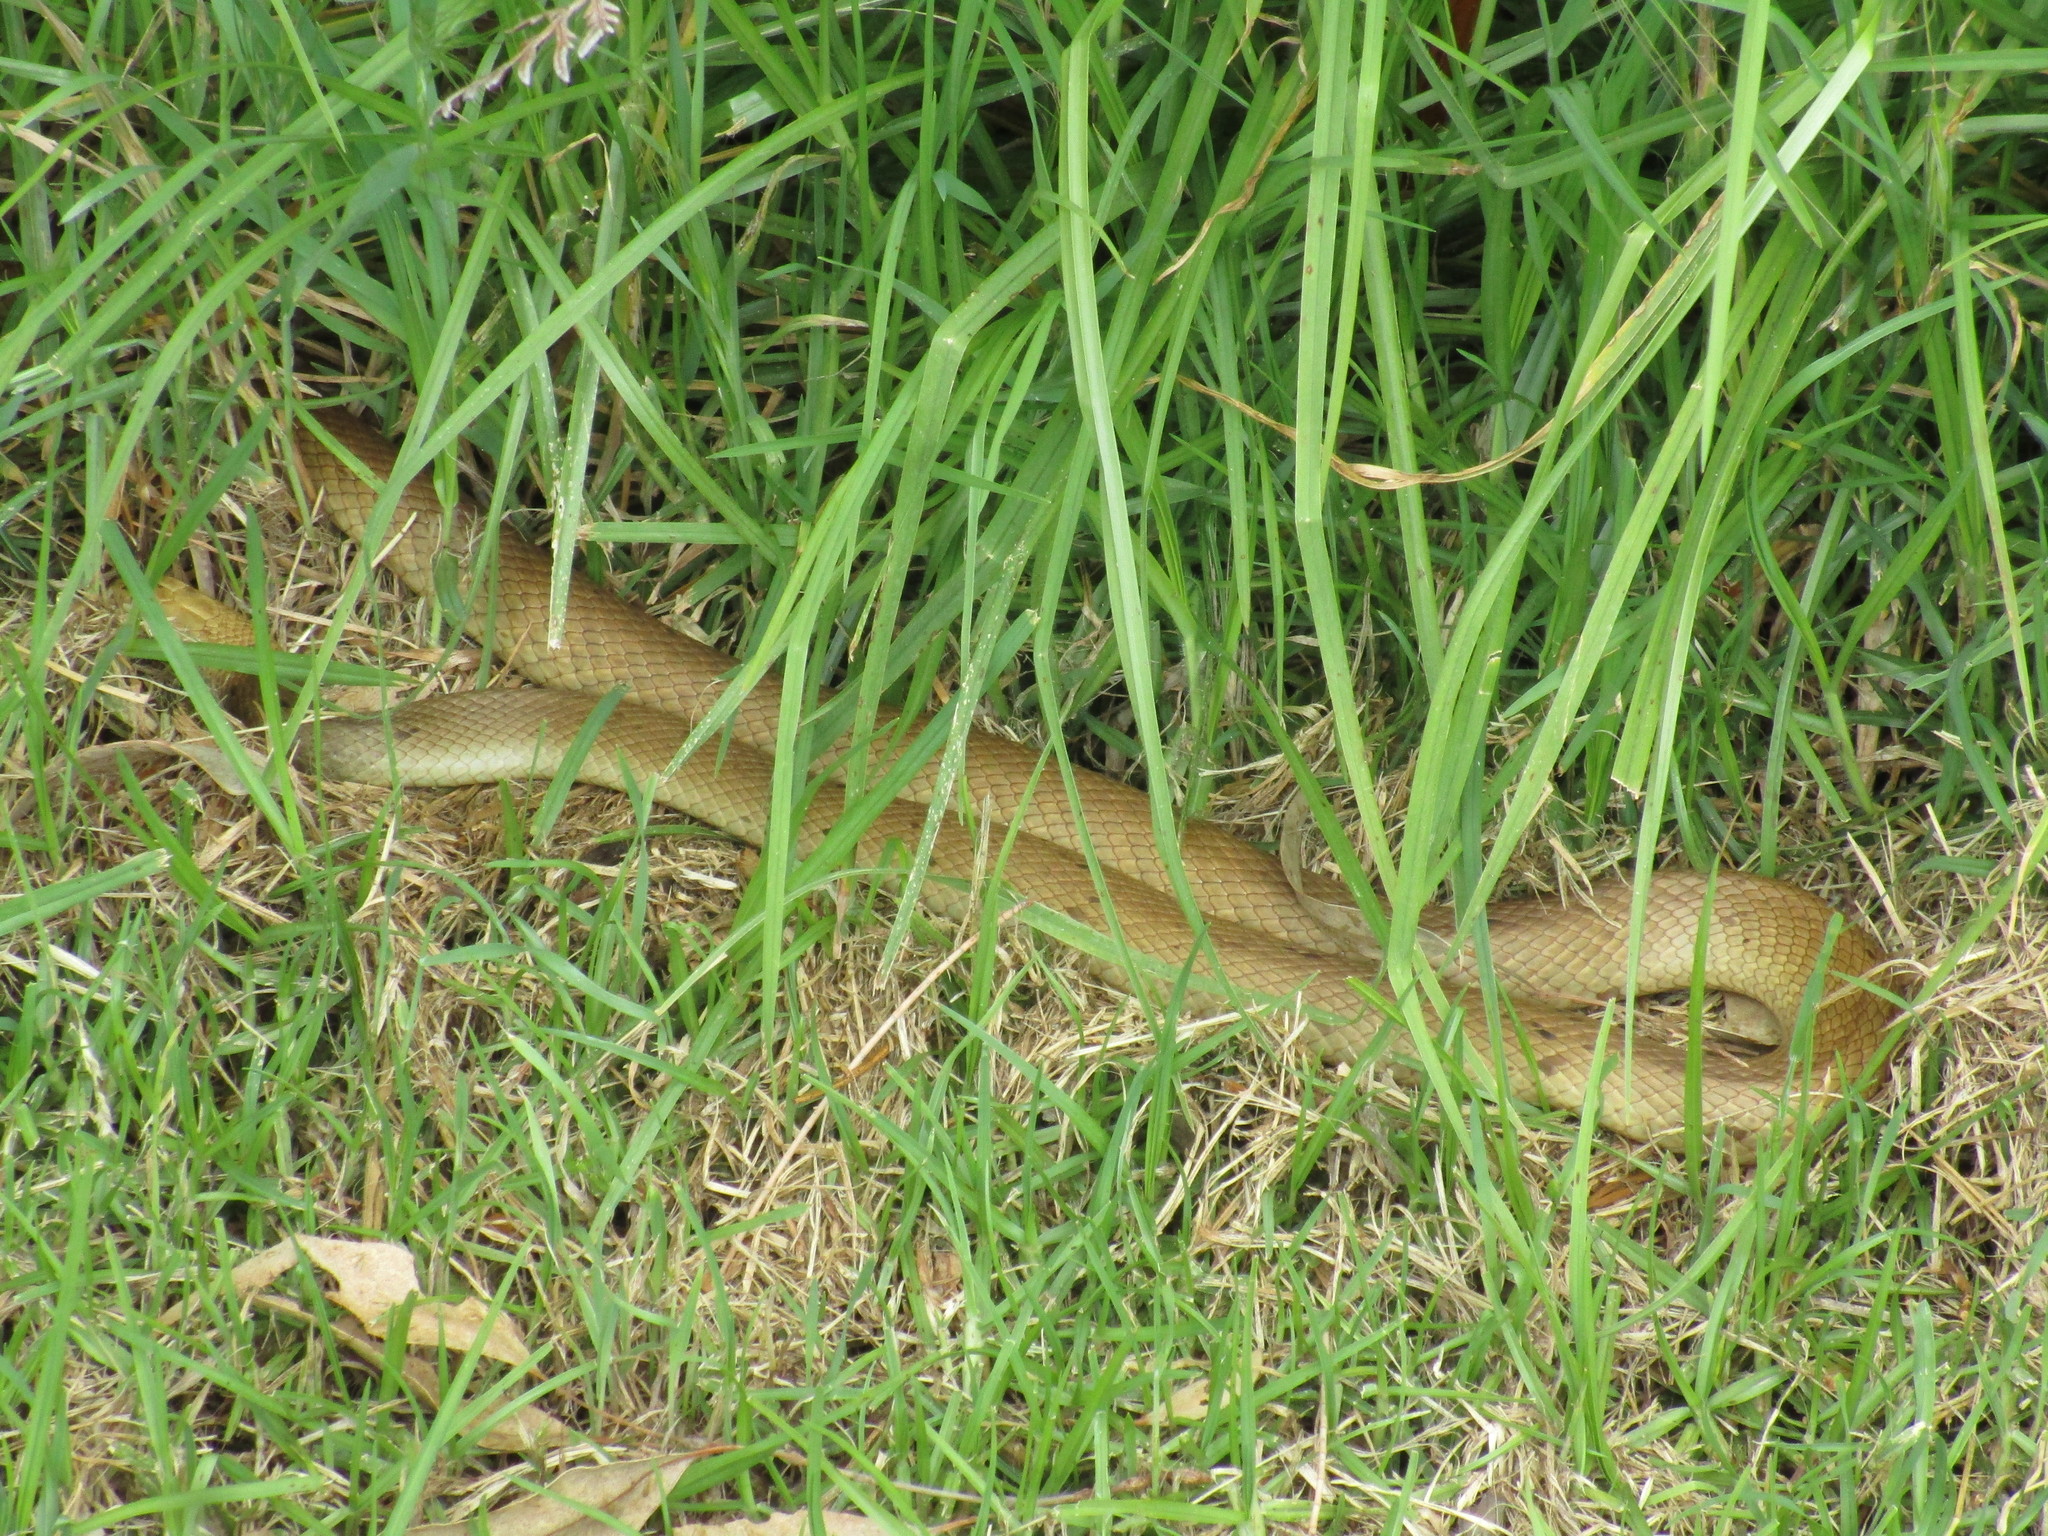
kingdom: Animalia
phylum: Chordata
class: Squamata
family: Elapidae
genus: Pseudonaja
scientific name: Pseudonaja affinis
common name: Dugite
